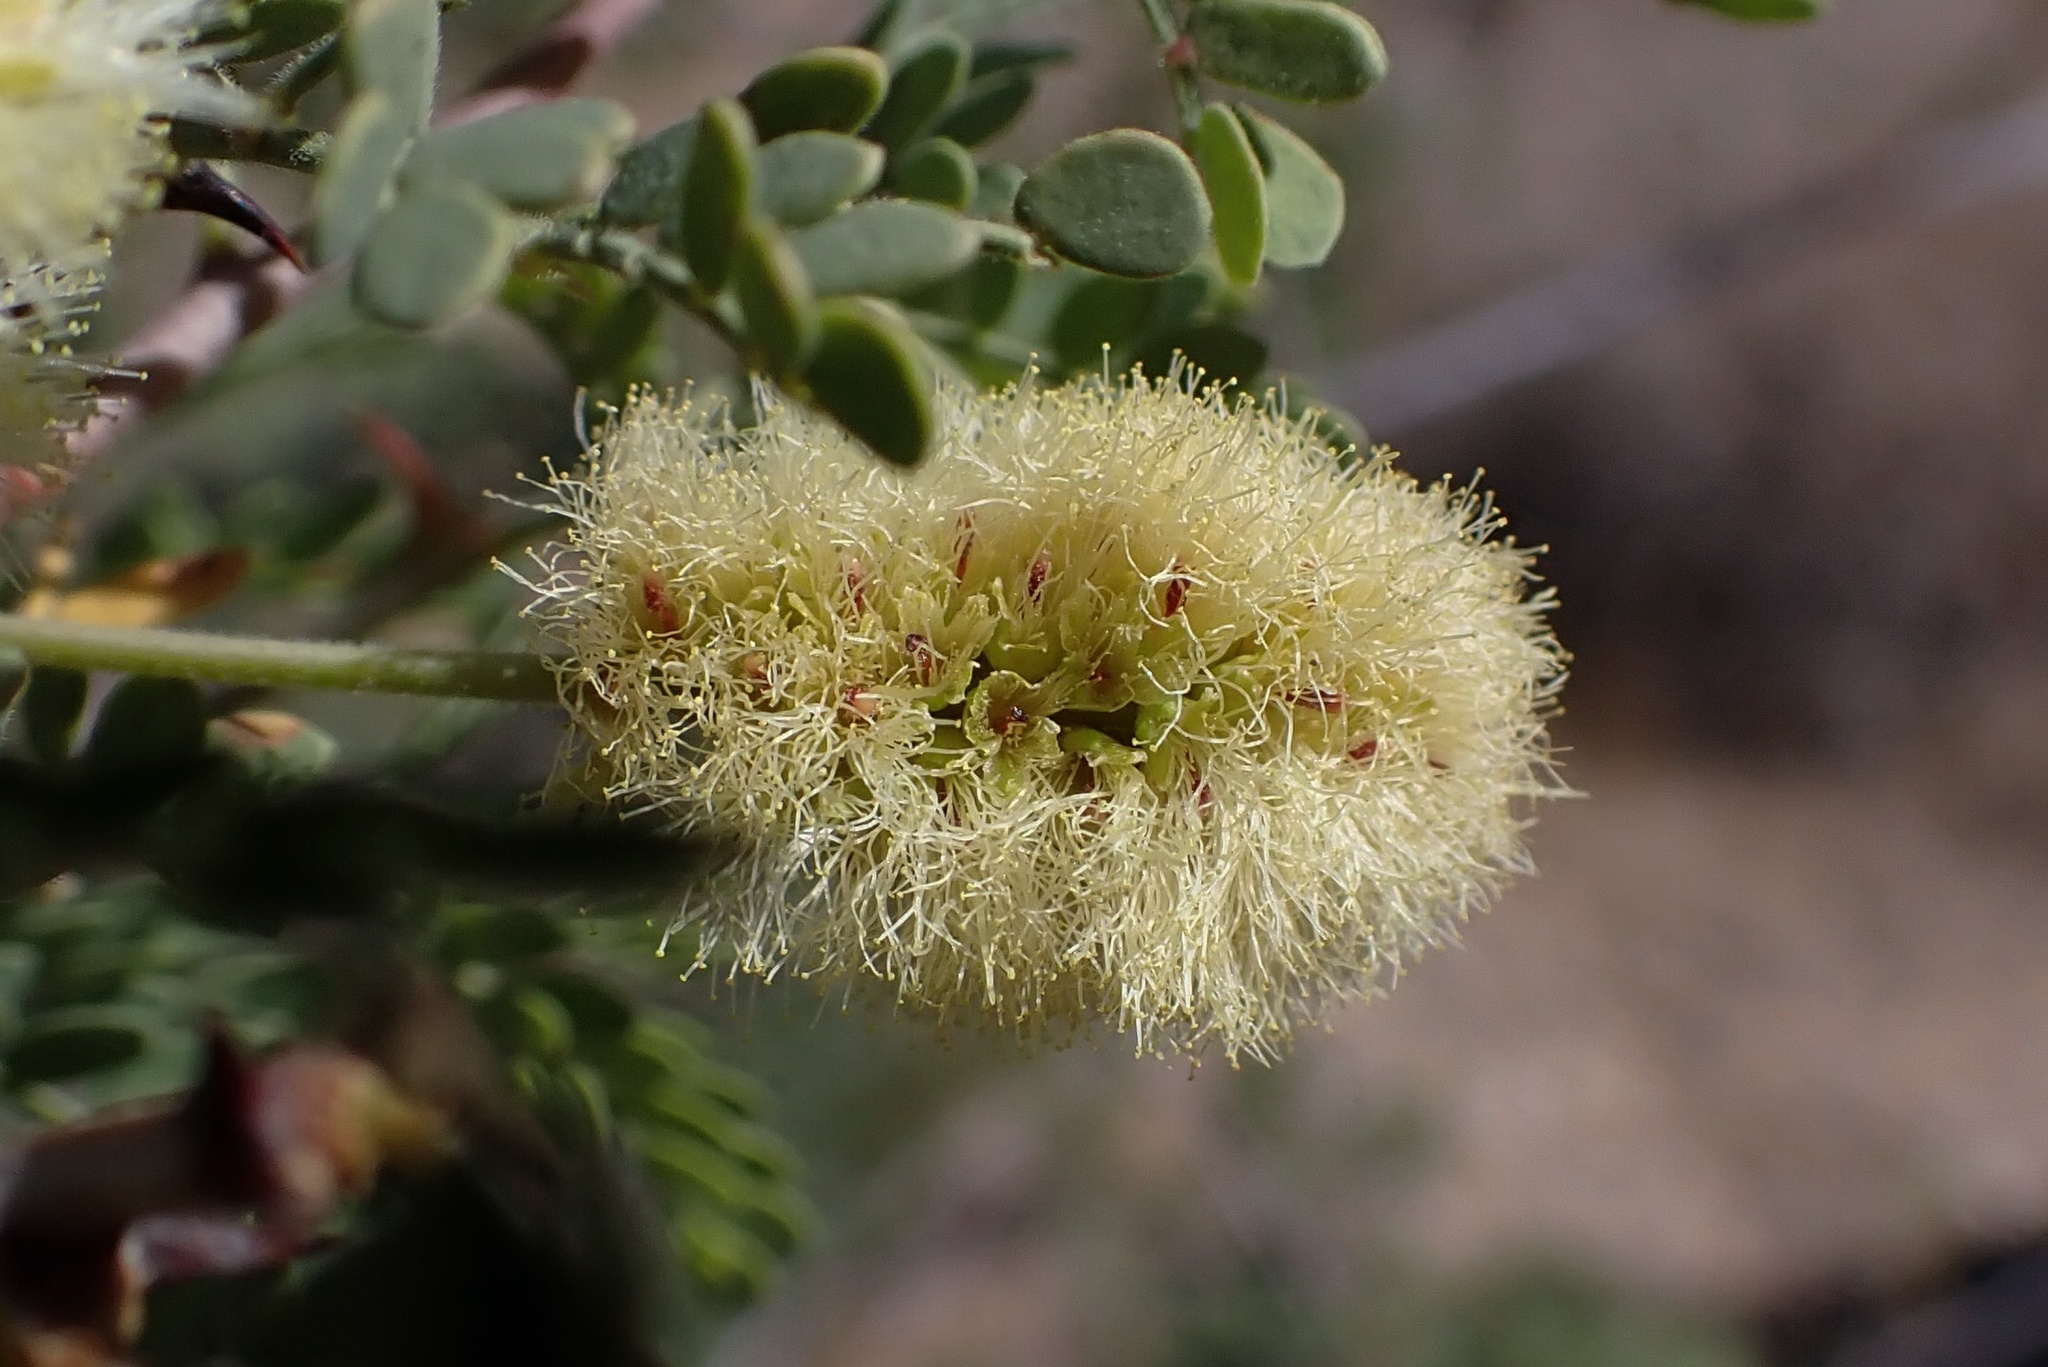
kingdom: Plantae
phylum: Tracheophyta
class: Magnoliopsida
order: Fabales
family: Fabaceae
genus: Senegalia
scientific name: Senegalia greggii
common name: Texas-mimosa
